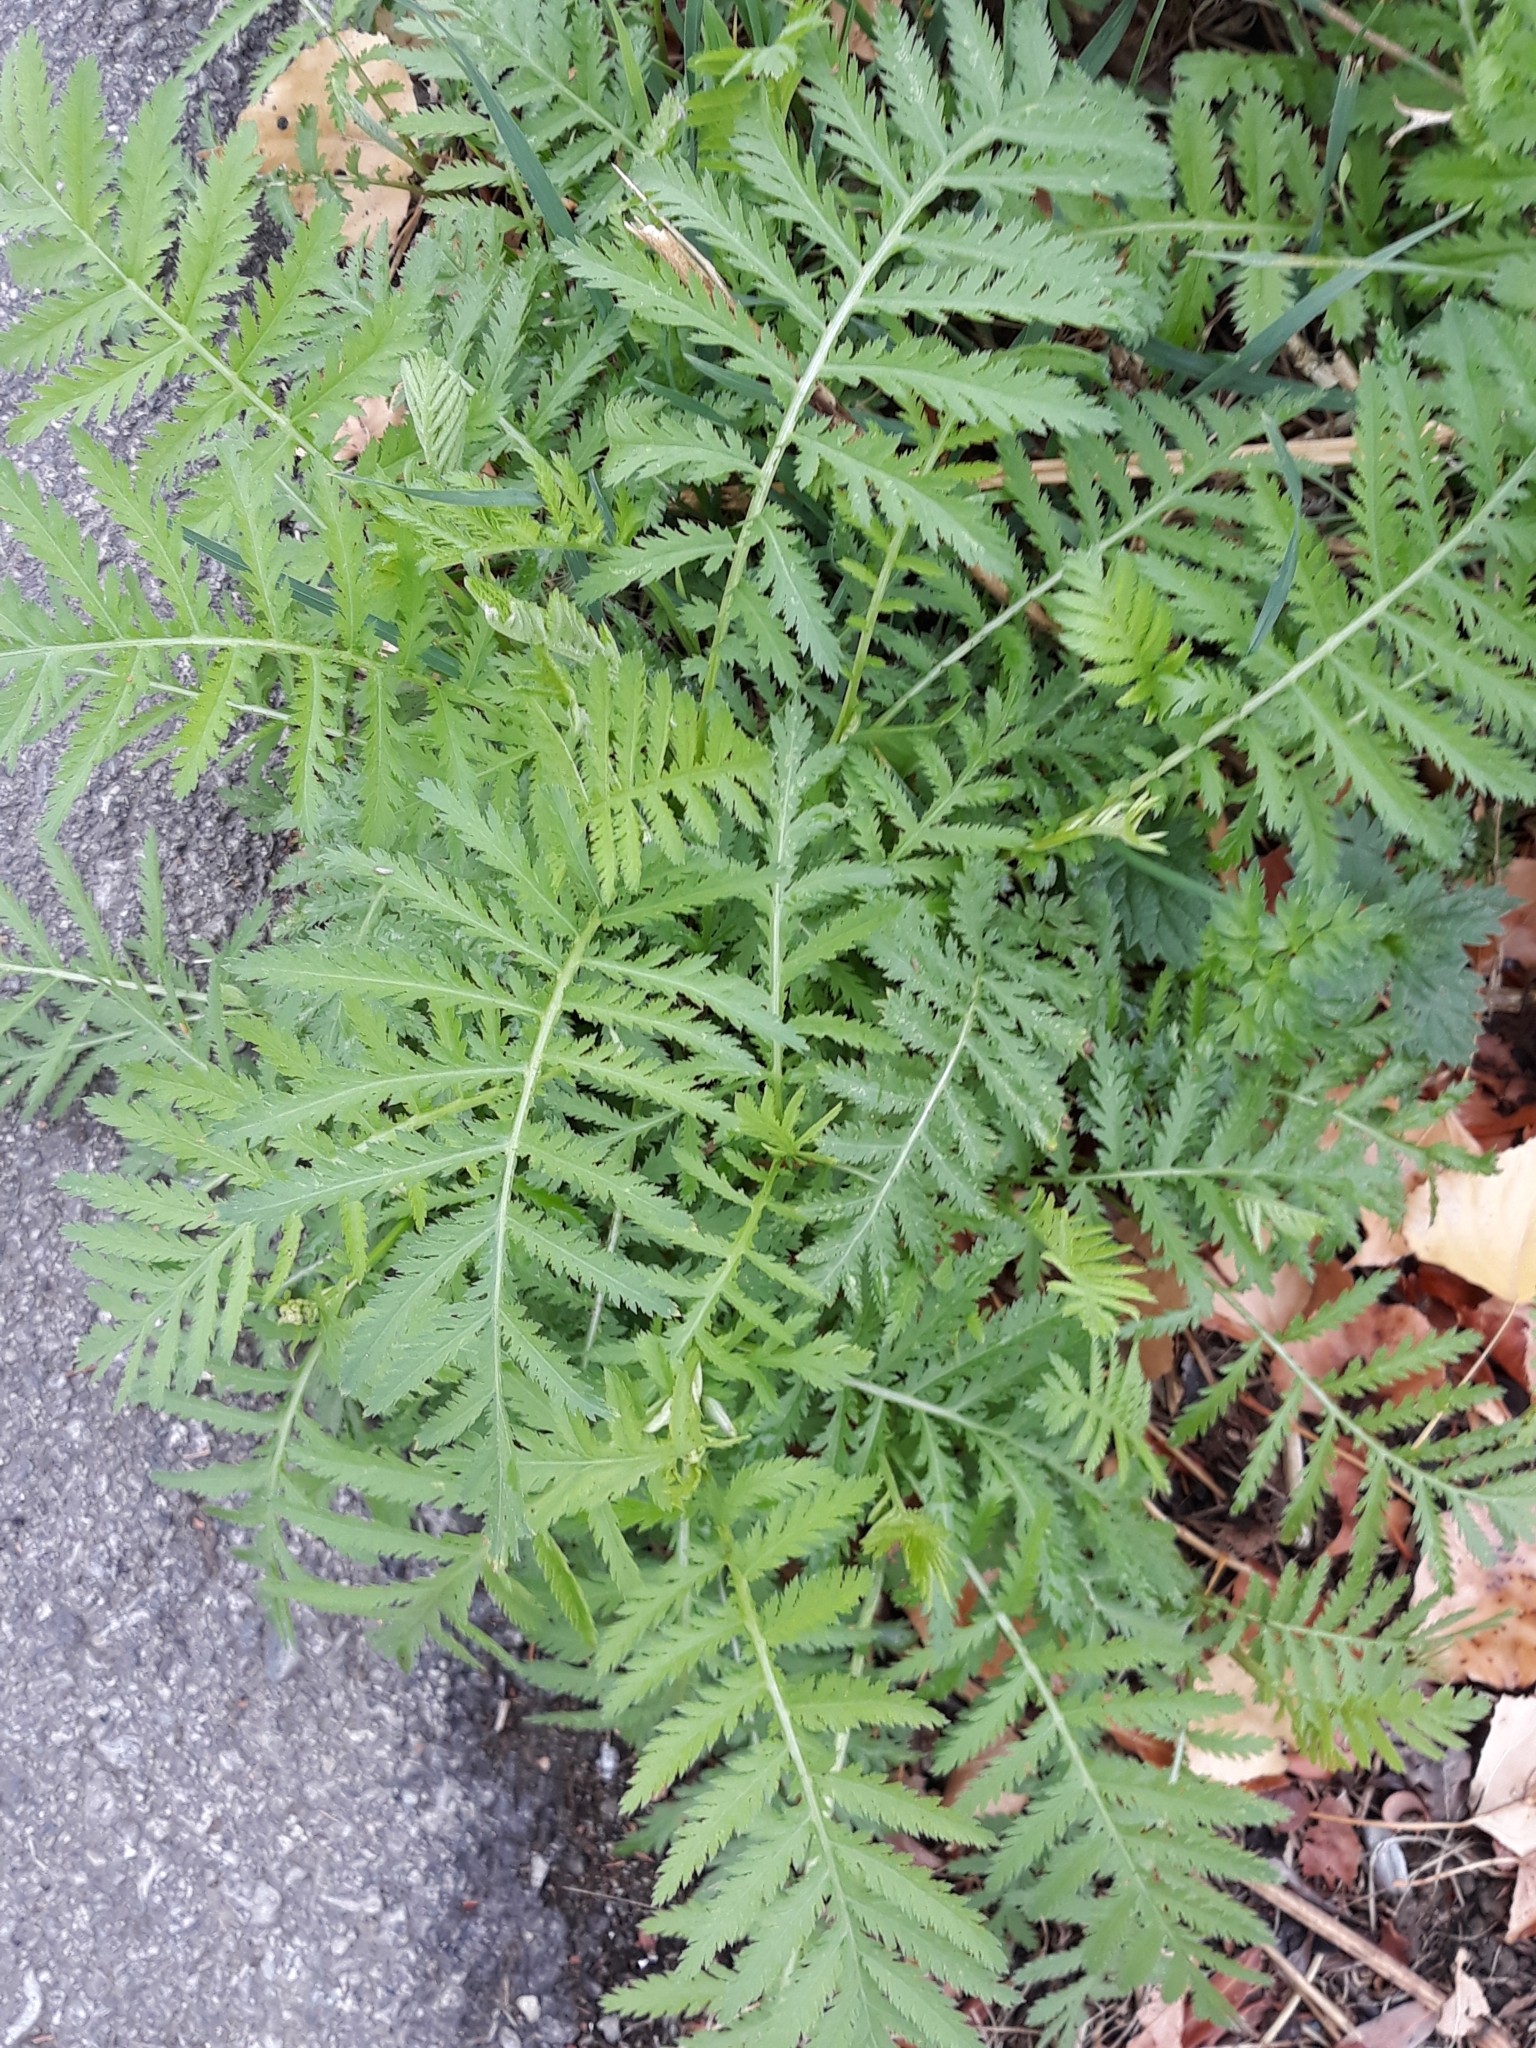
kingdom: Plantae
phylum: Tracheophyta
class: Magnoliopsida
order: Asterales
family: Asteraceae
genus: Tanacetum
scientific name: Tanacetum vulgare
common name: Common tansy
